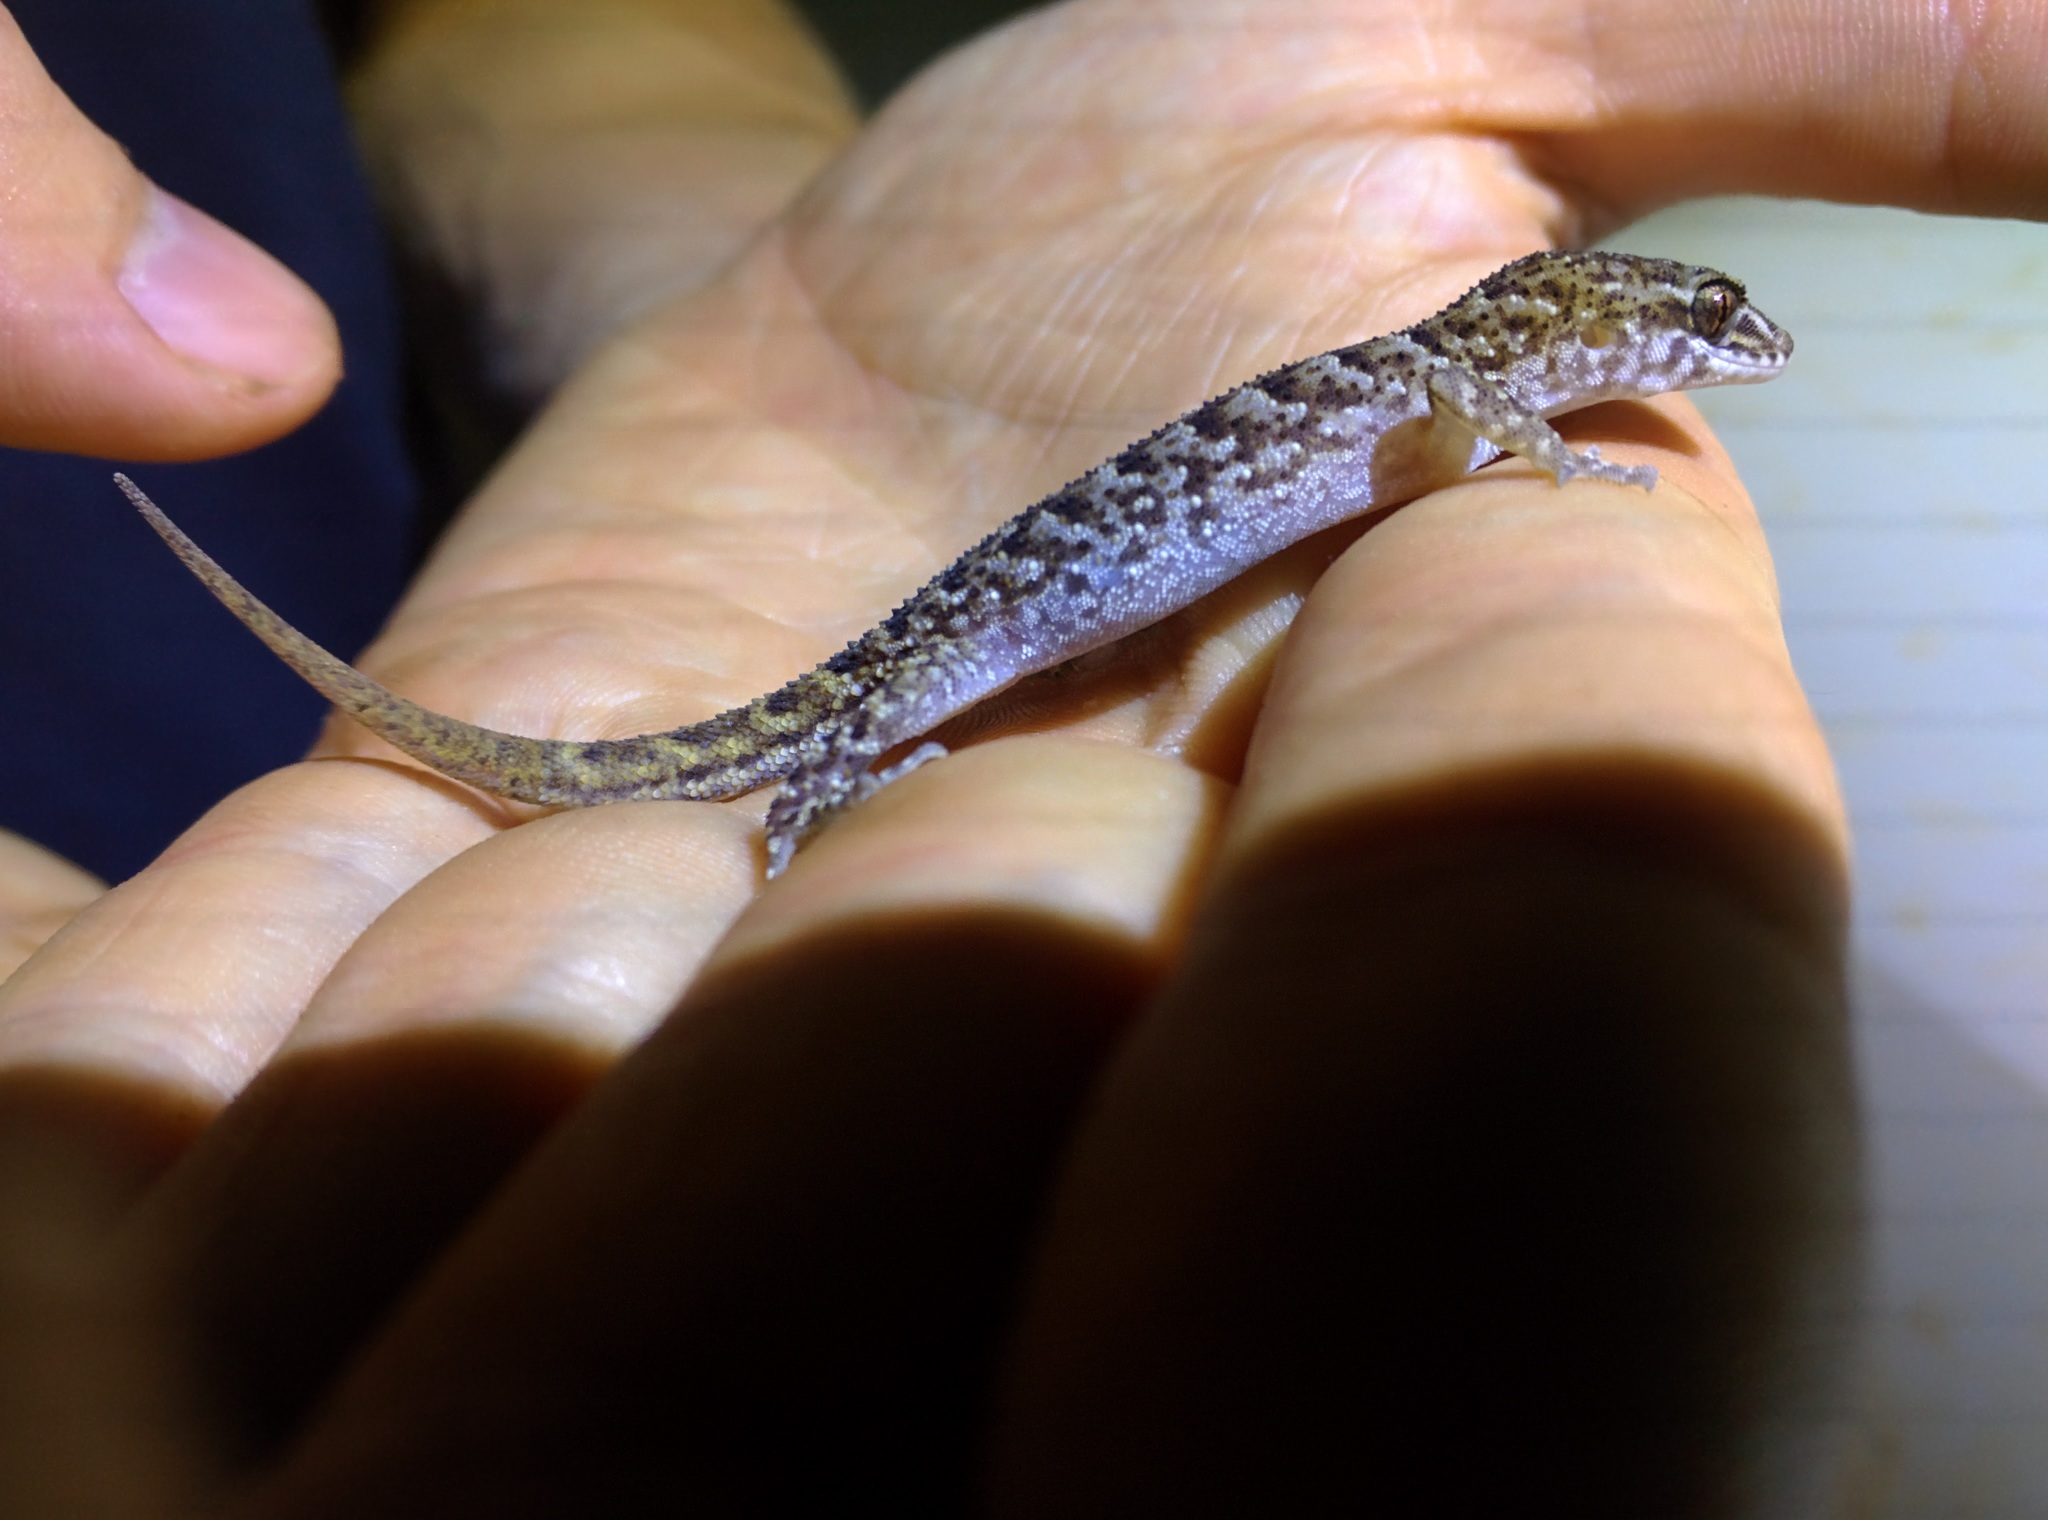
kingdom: Animalia
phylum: Chordata
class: Squamata
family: Gekkonidae
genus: Nactus
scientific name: Nactus eboracensis
